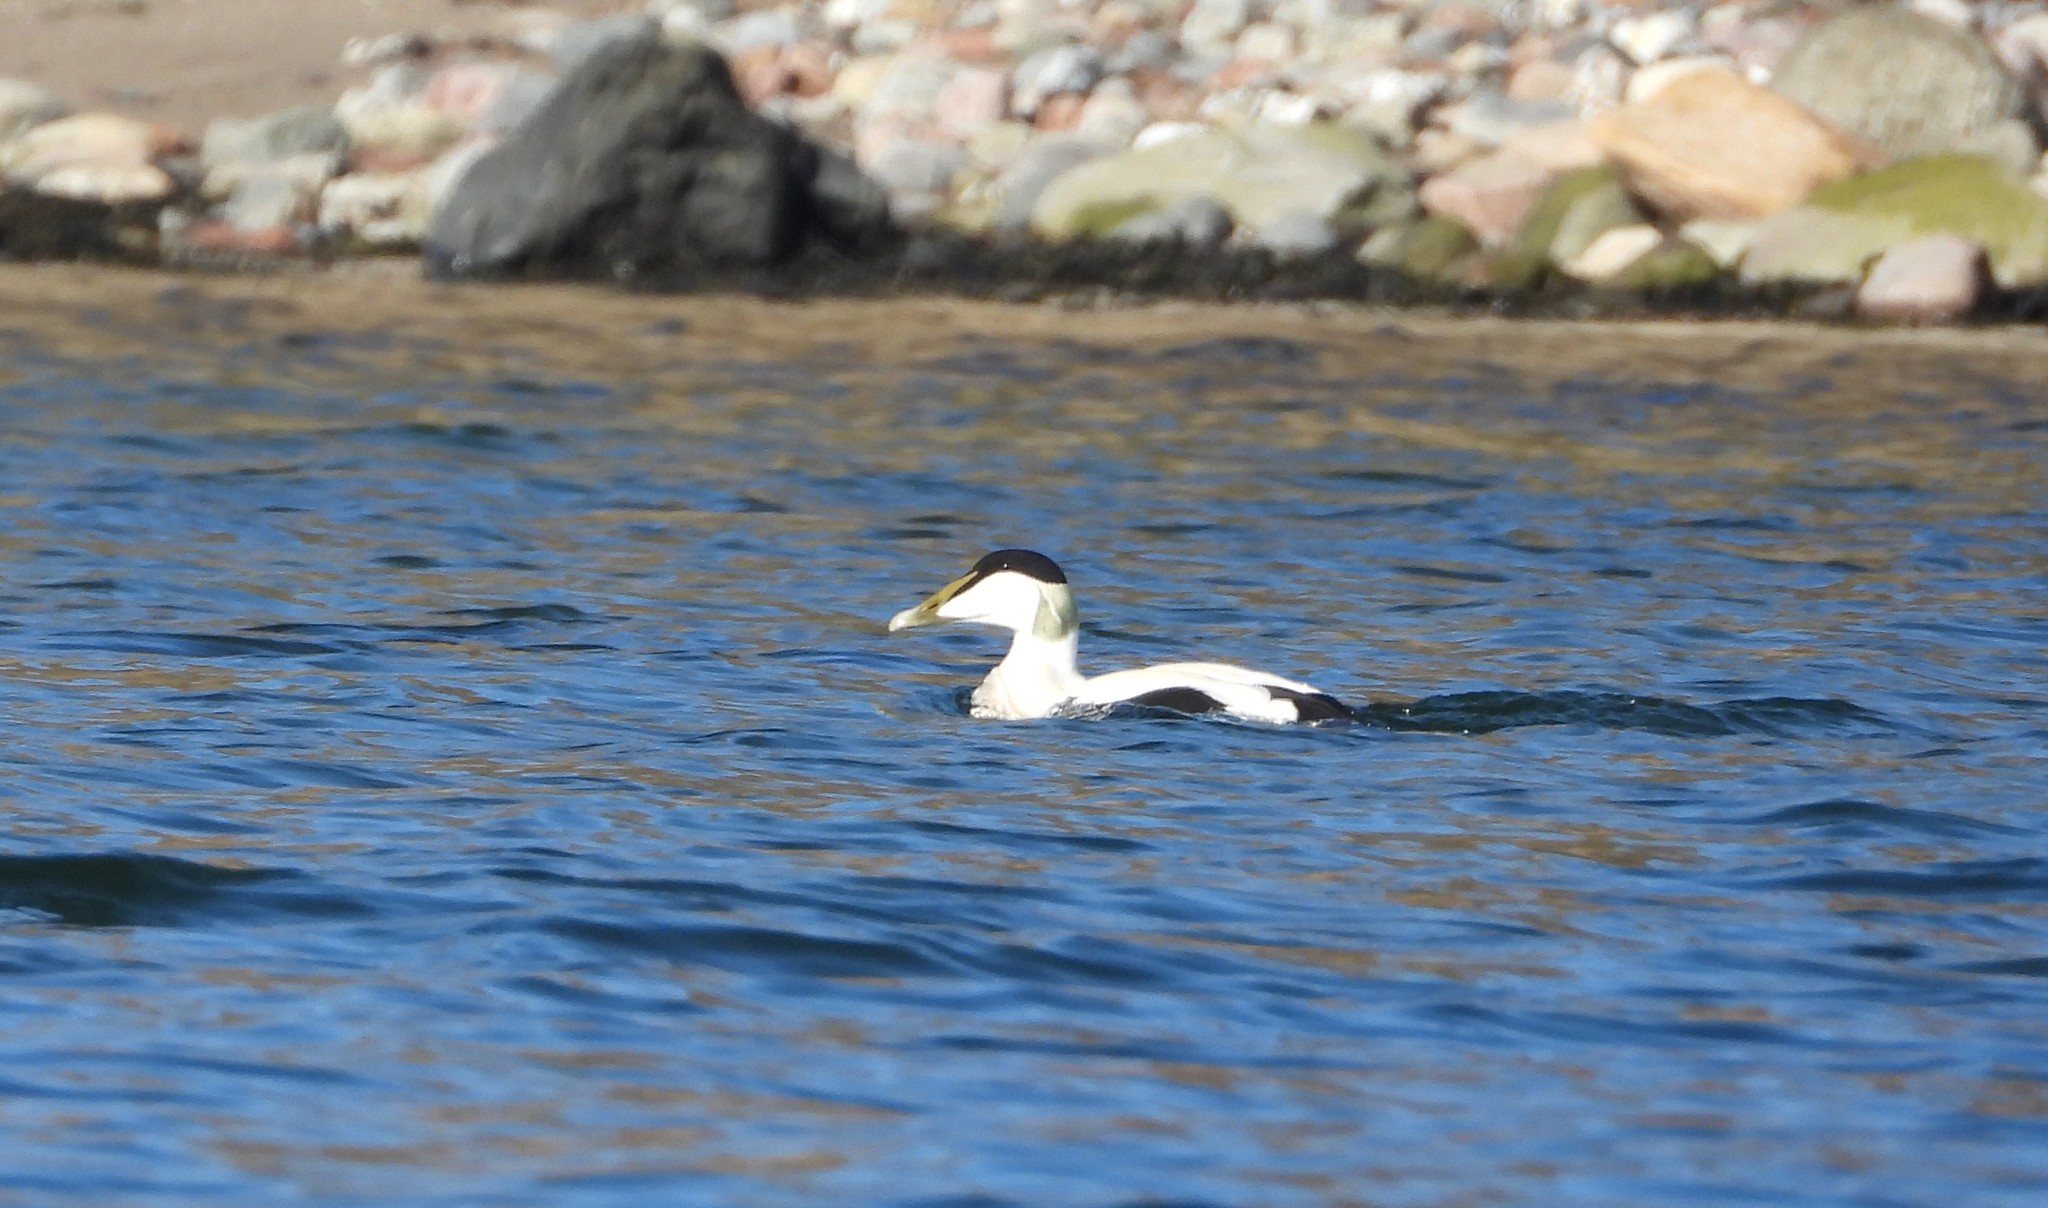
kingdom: Animalia
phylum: Chordata
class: Aves
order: Anseriformes
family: Anatidae
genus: Somateria
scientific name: Somateria mollissima
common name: Common eider
